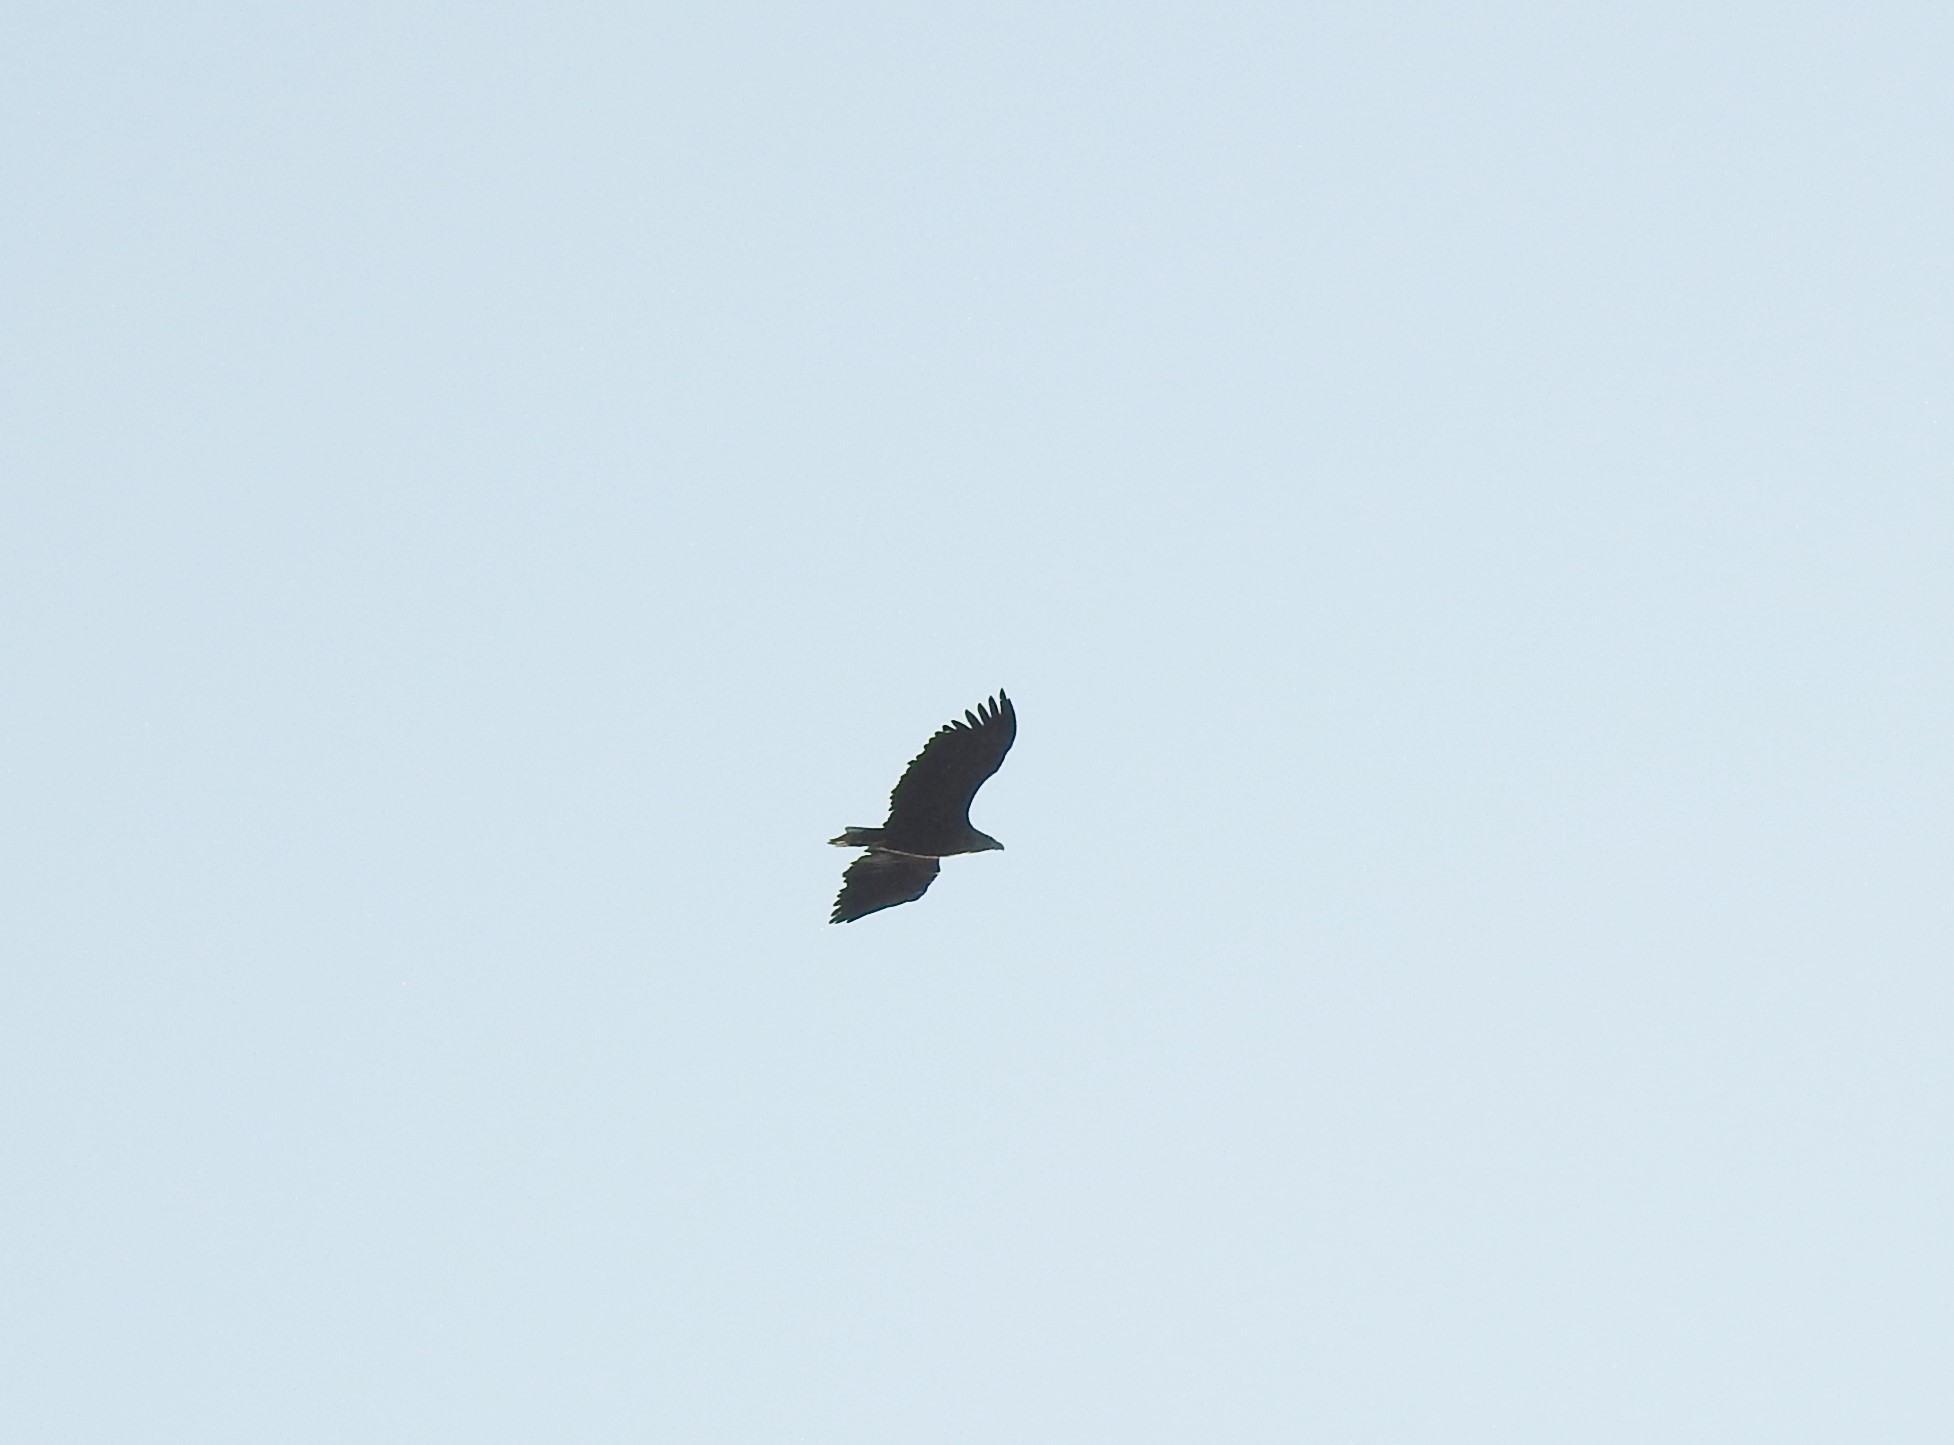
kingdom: Animalia
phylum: Chordata
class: Aves
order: Accipitriformes
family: Accipitridae
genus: Haliaeetus
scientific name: Haliaeetus albicilla
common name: White-tailed eagle
